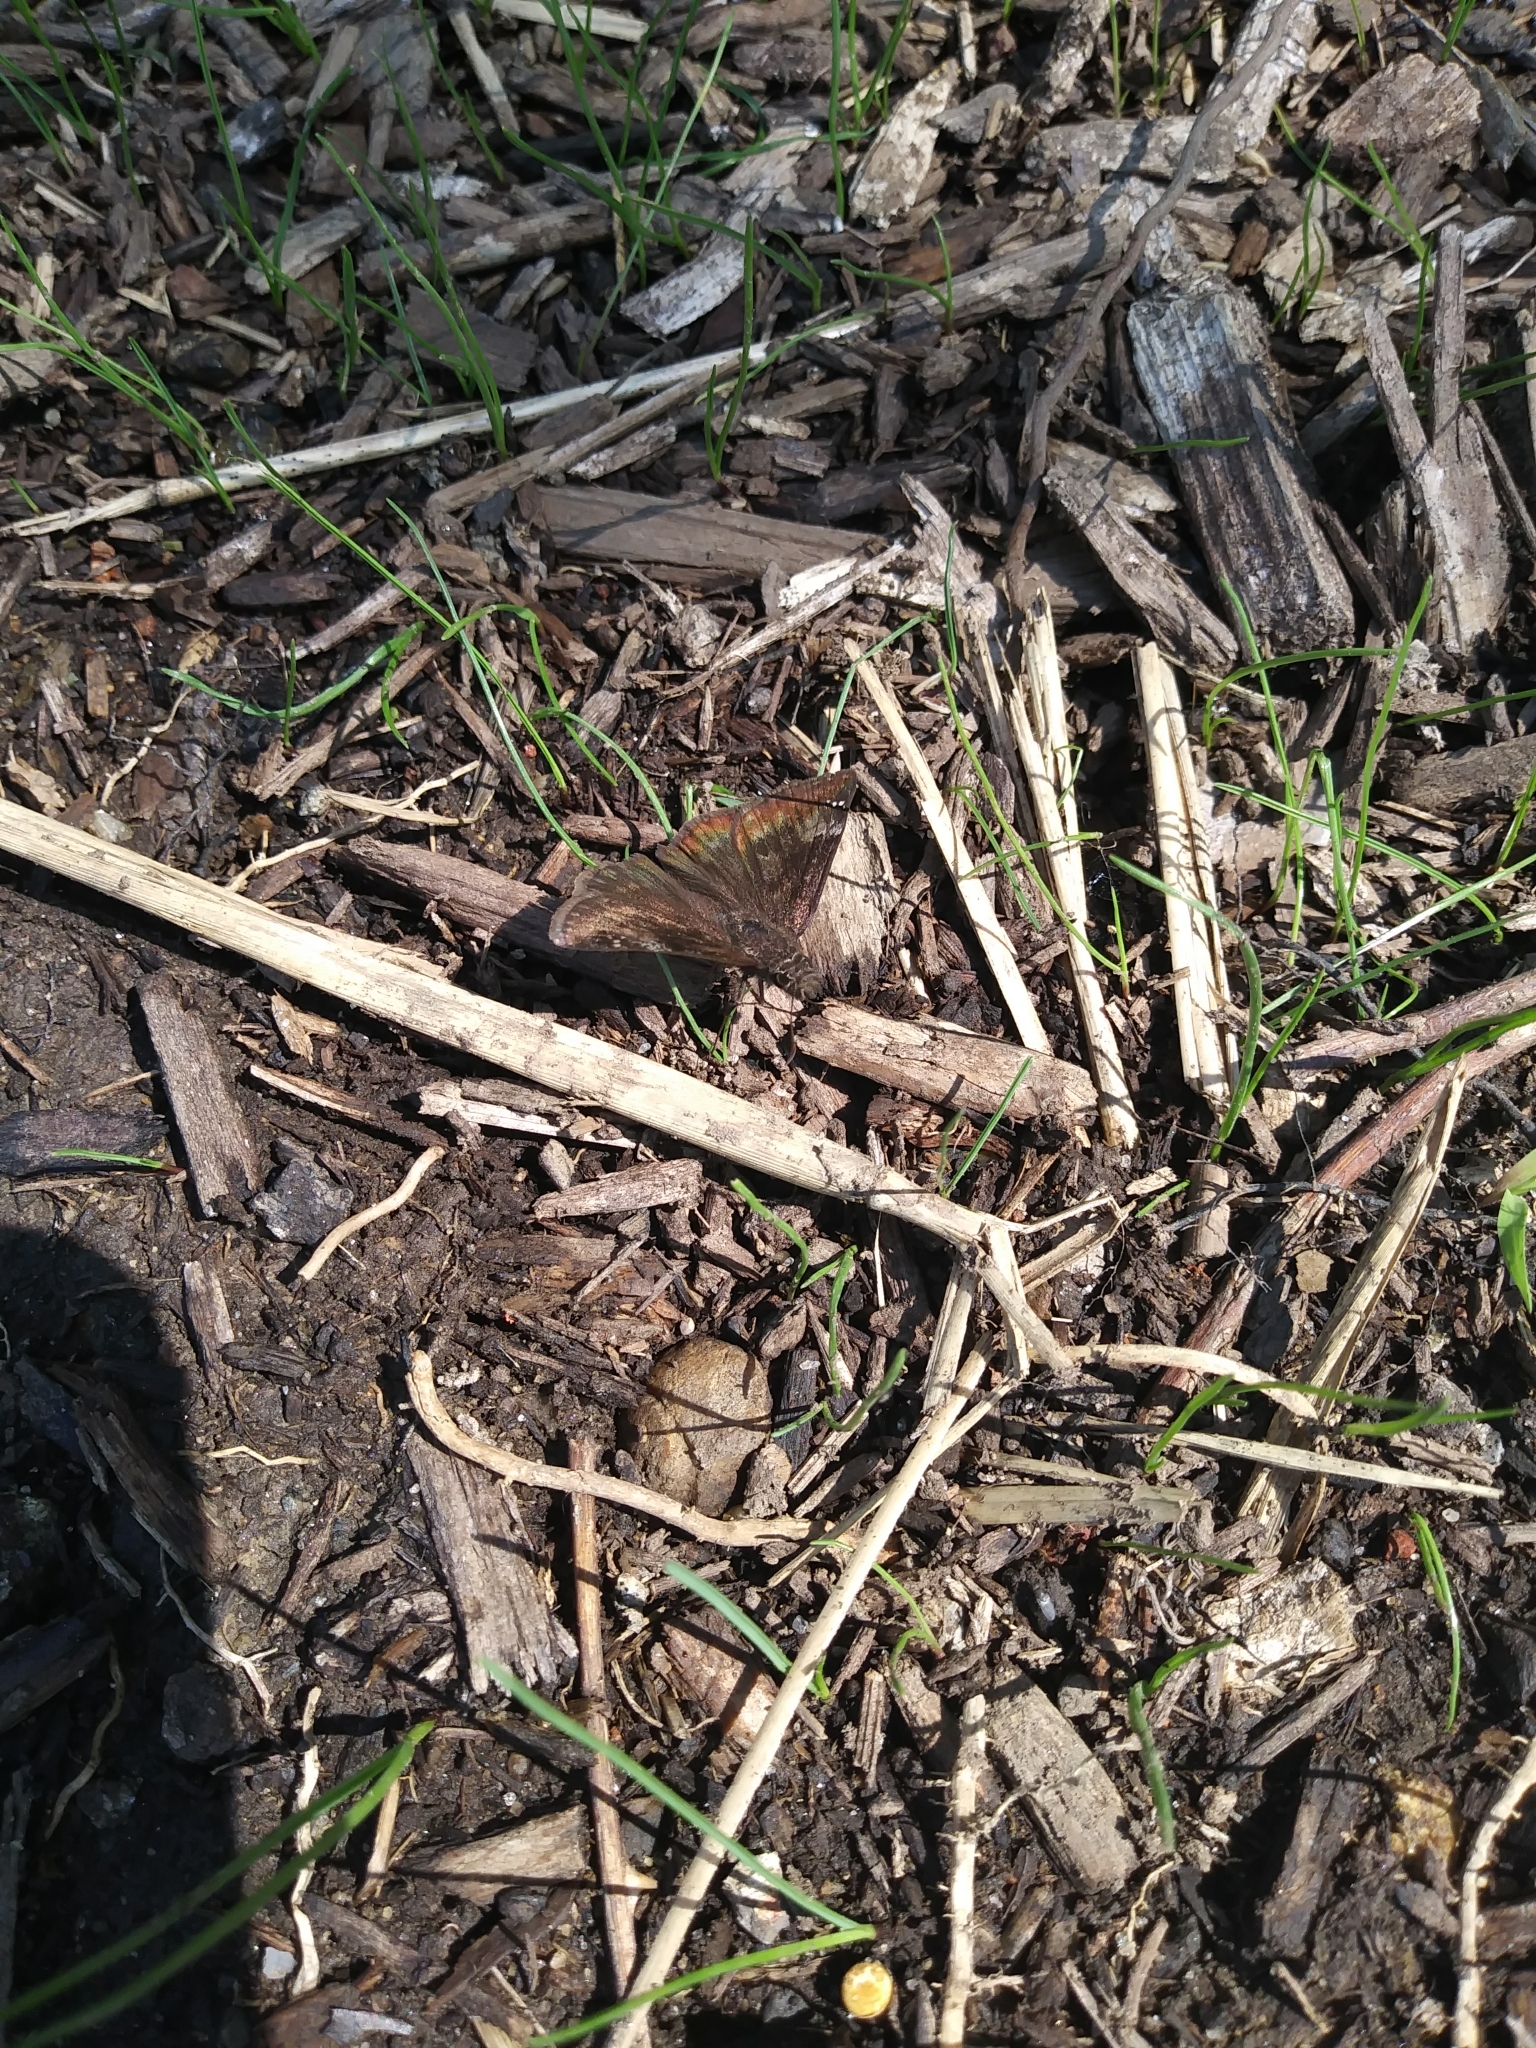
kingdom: Animalia
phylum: Arthropoda
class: Insecta
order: Lepidoptera
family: Hesperiidae
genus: Erynnis
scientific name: Erynnis baptisiae
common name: Wild indigo duskywing
